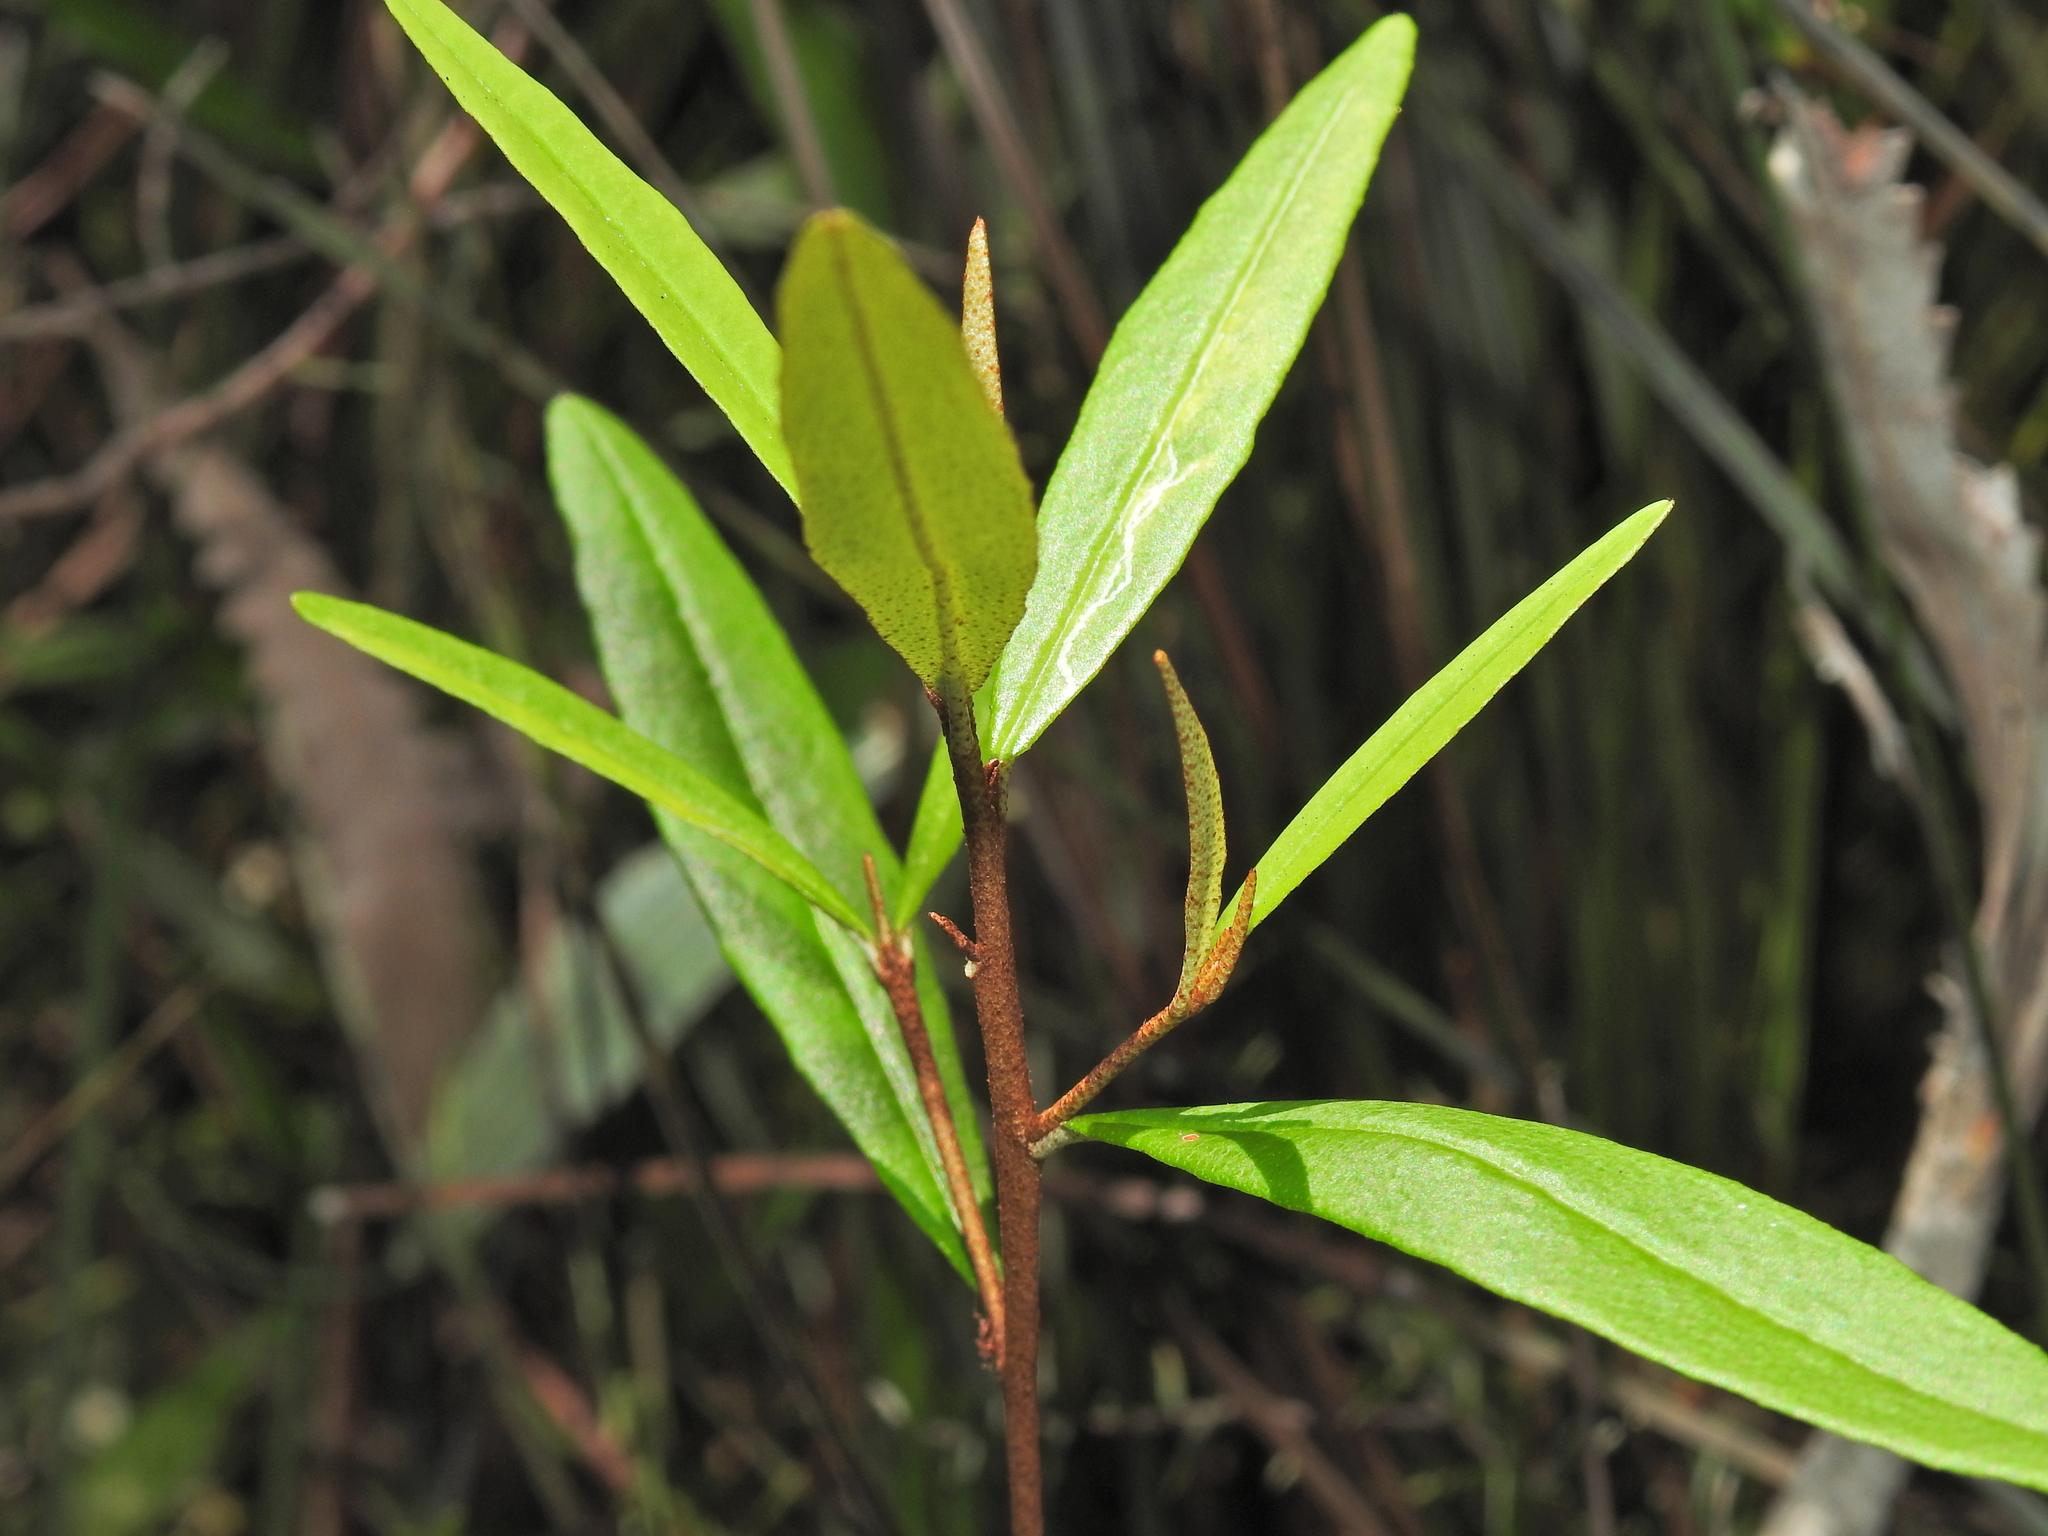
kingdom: Plantae
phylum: Tracheophyta
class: Magnoliopsida
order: Sapindales
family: Rutaceae
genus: Phebalium
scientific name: Phebalium woombye
